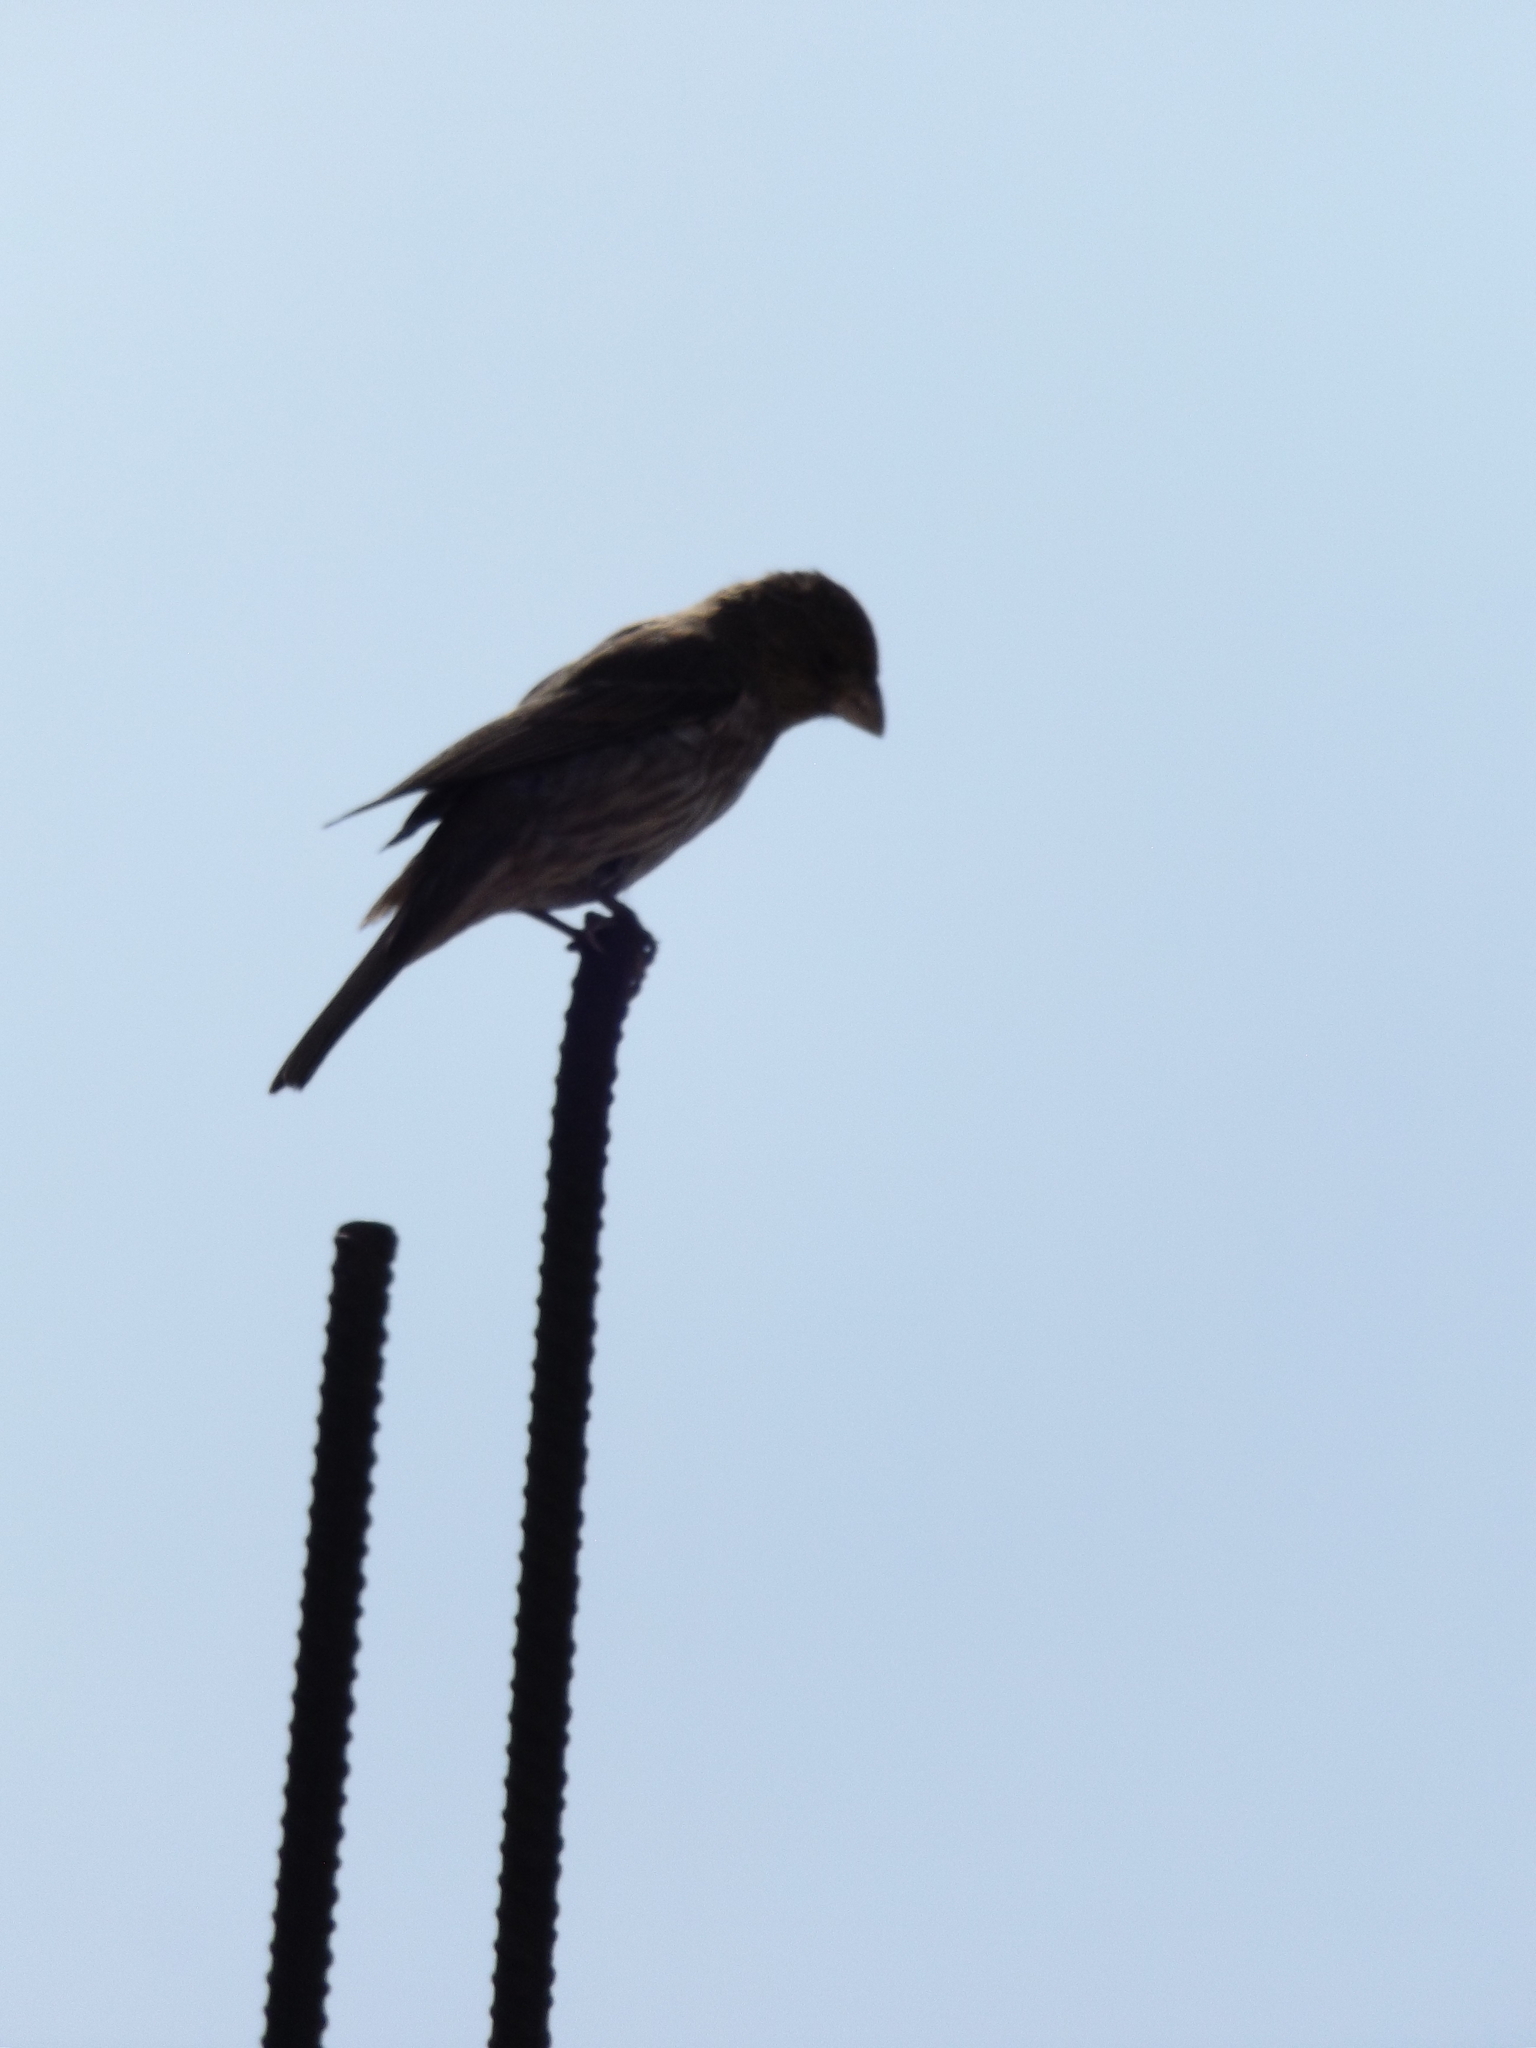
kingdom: Animalia
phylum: Chordata
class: Aves
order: Passeriformes
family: Fringillidae
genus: Haemorhous
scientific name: Haemorhous mexicanus
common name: House finch
